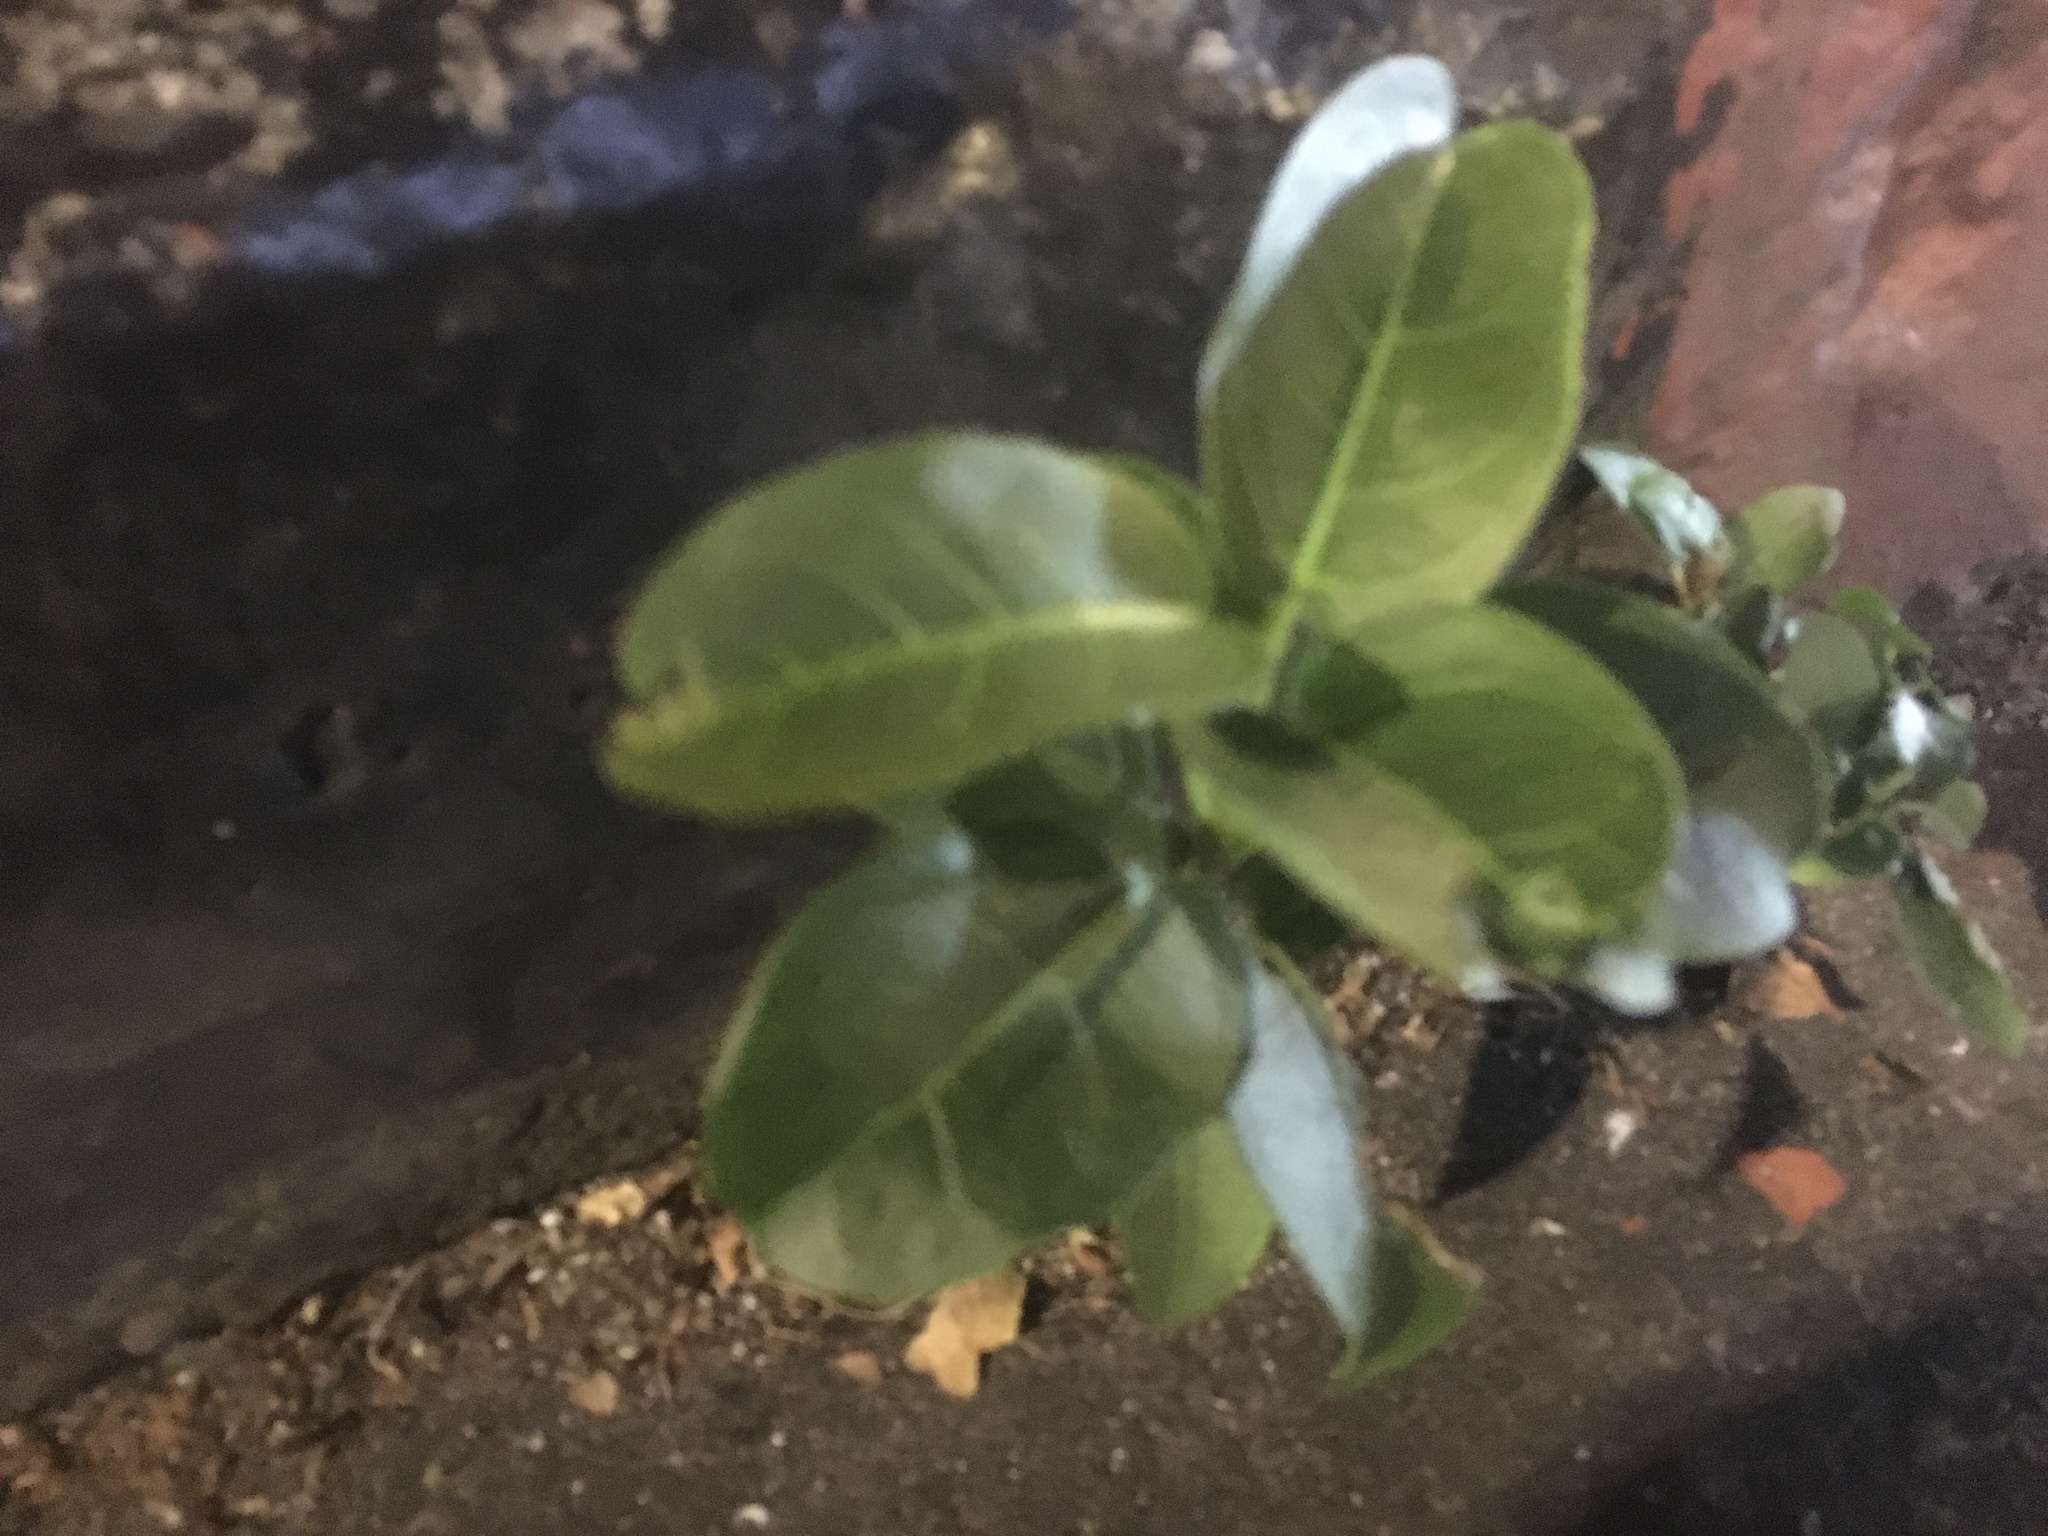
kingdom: Plantae
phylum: Tracheophyta
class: Magnoliopsida
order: Rosales
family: Moraceae
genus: Ficus
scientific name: Ficus subpisocarpa
